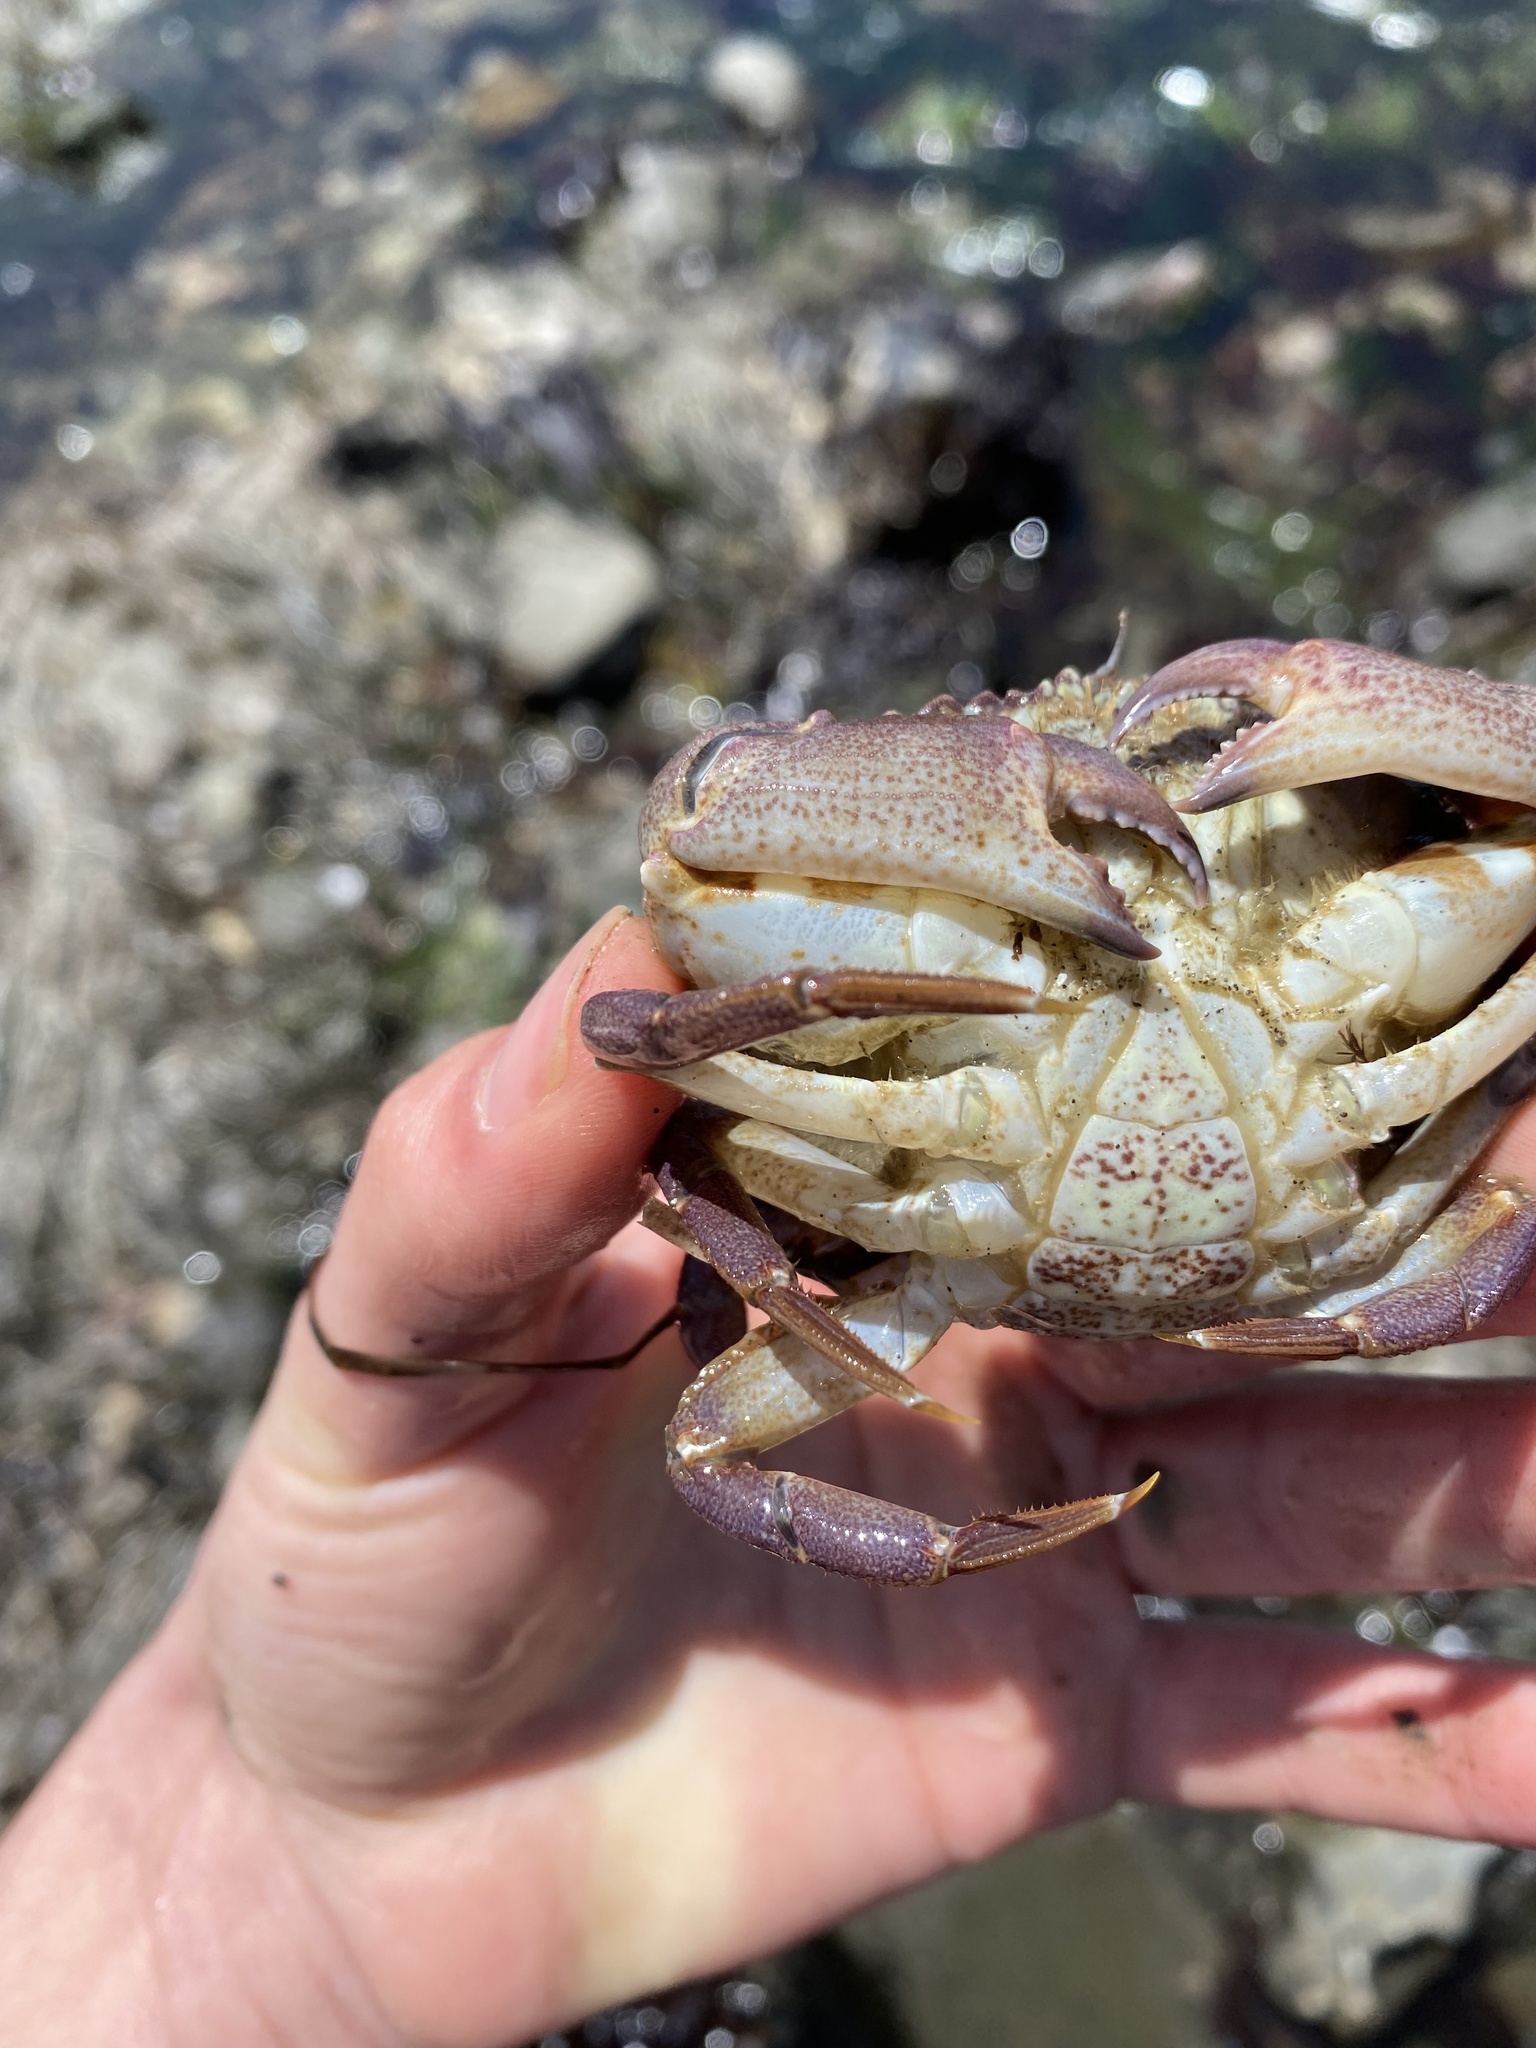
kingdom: Animalia
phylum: Arthropoda
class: Malacostraca
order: Decapoda
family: Cancridae
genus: Metacarcinus
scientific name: Metacarcinus anthonyi
